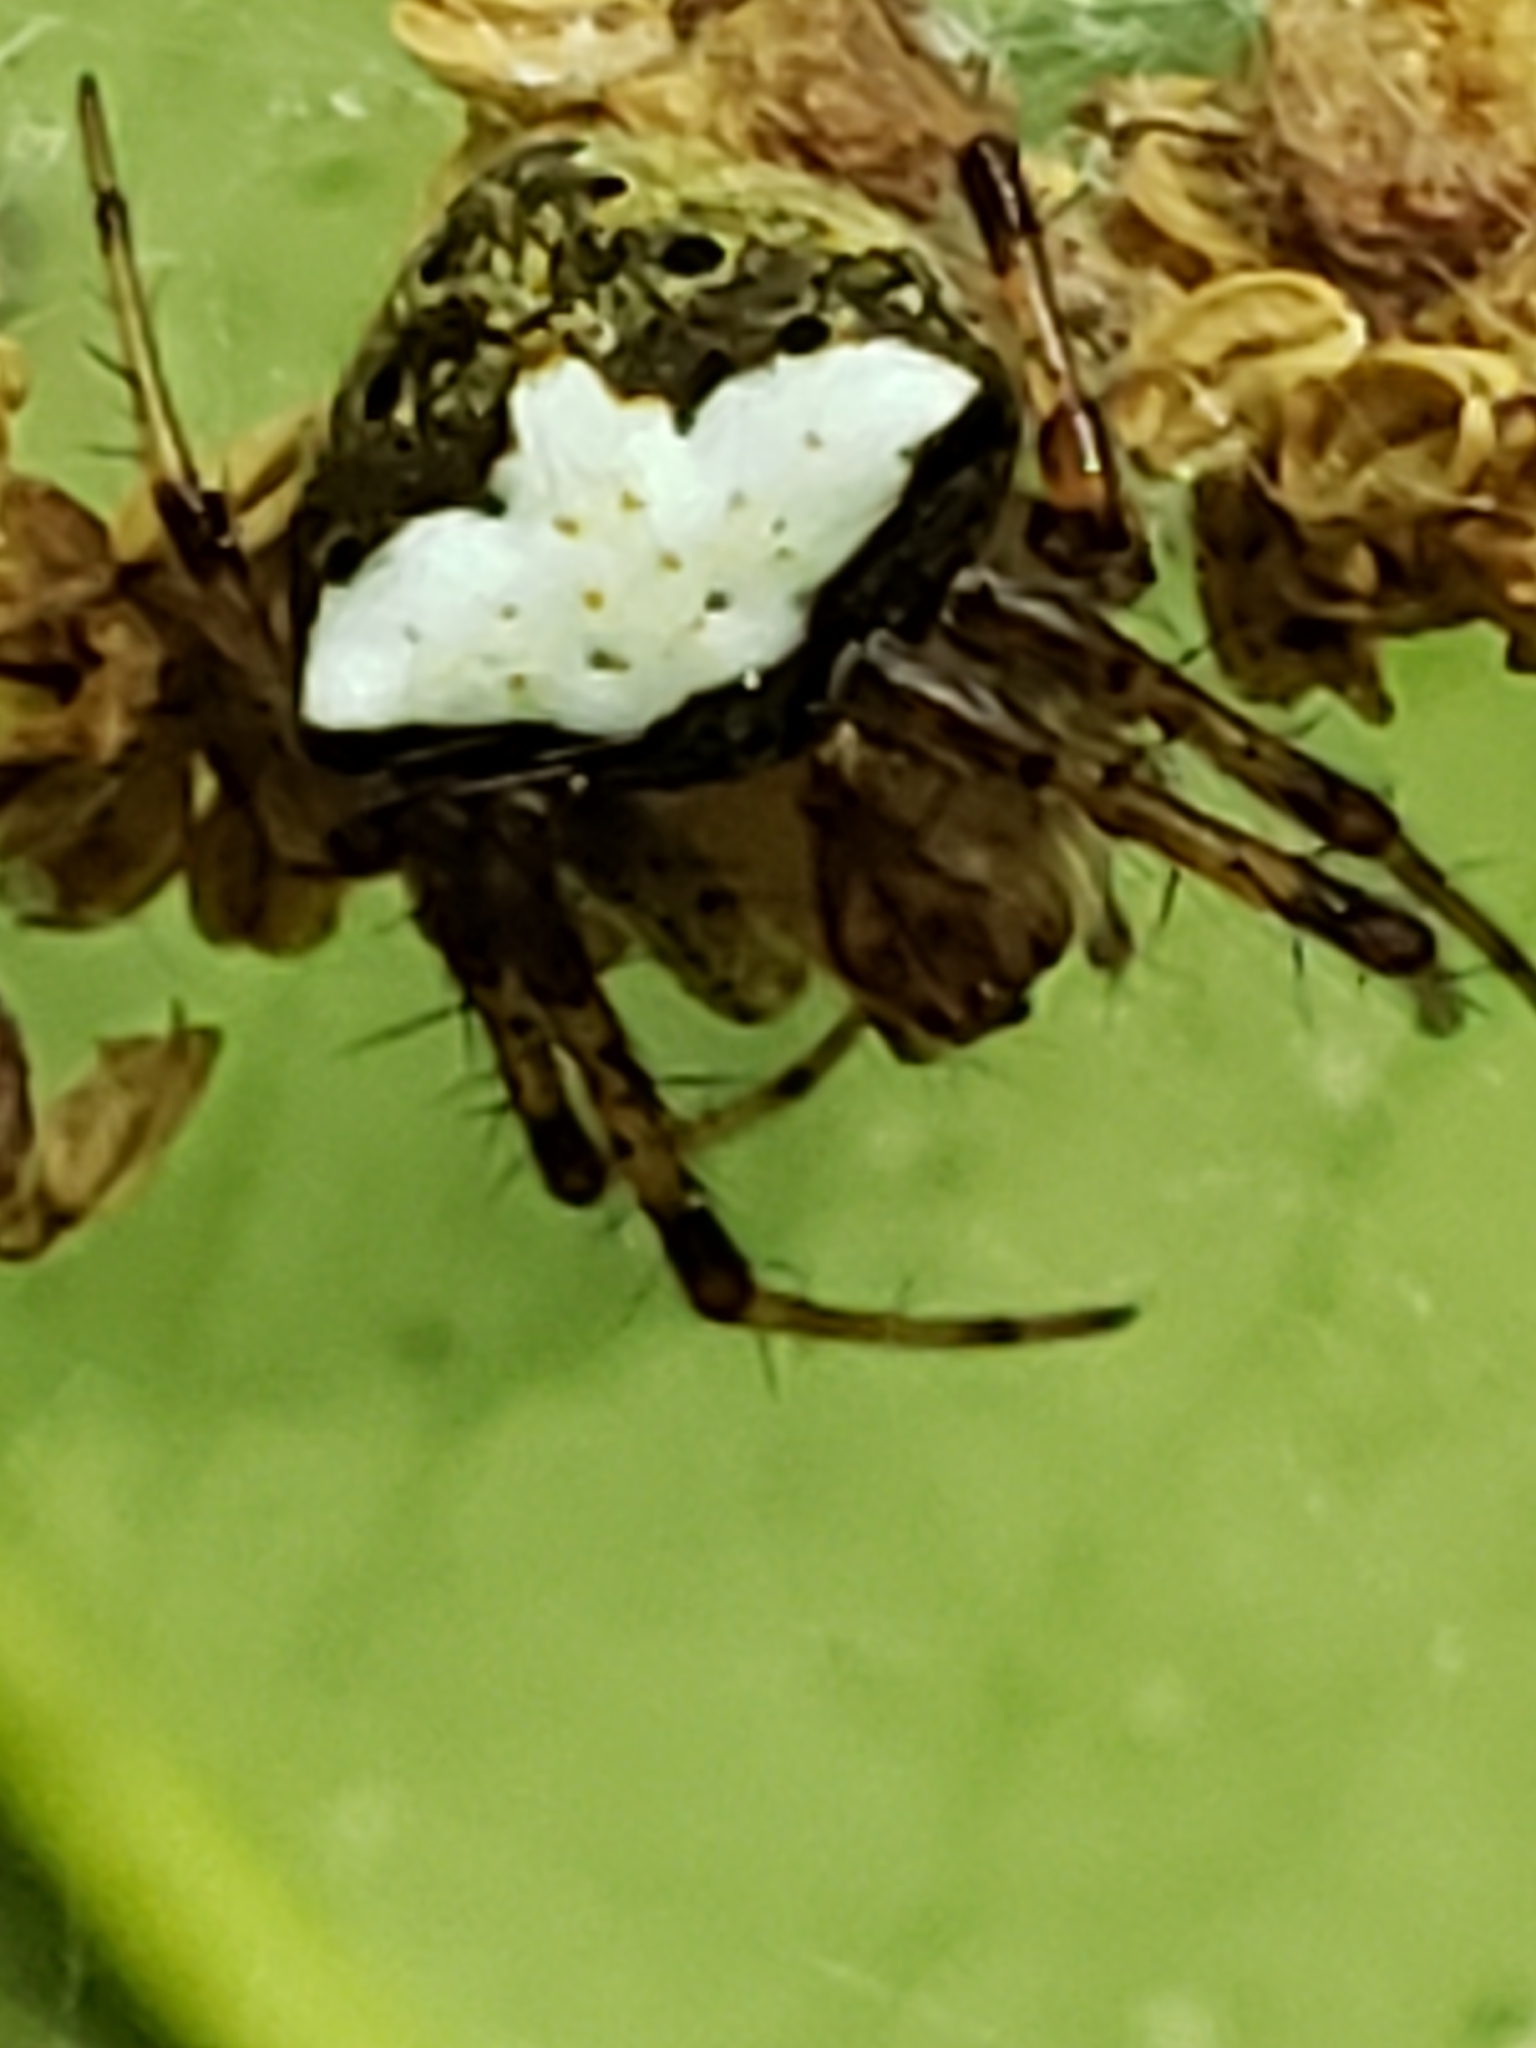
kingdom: Animalia
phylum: Arthropoda
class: Arachnida
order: Araneae
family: Araneidae
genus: Araneus
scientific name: Araneus miniatus
